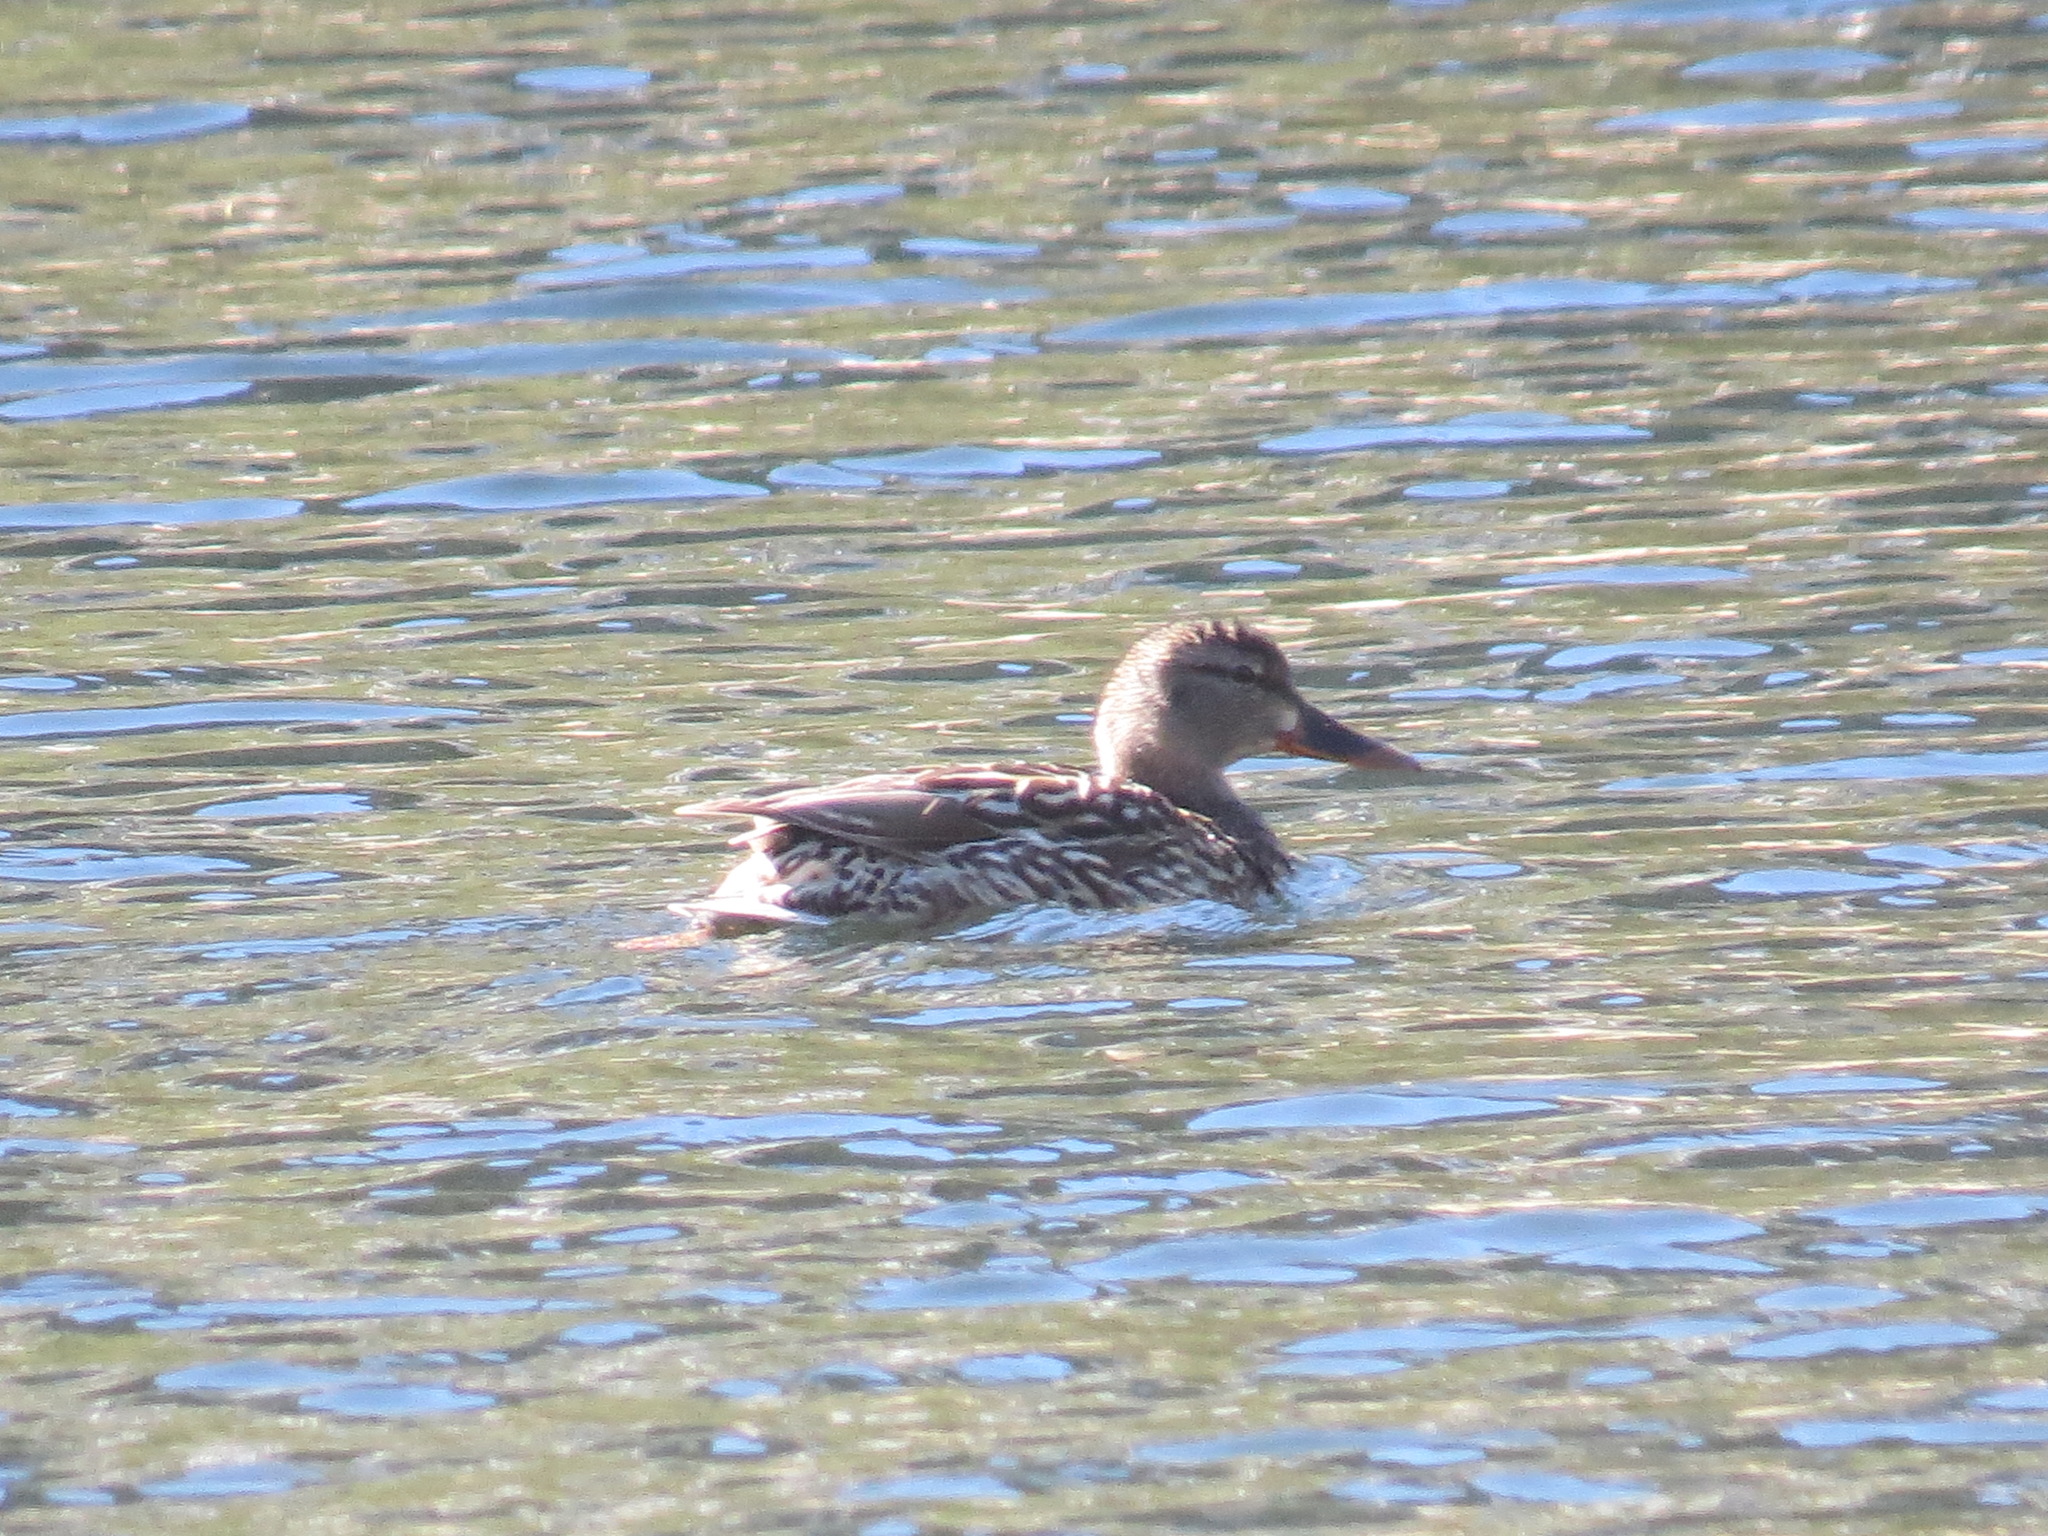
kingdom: Animalia
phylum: Chordata
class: Aves
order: Anseriformes
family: Anatidae
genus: Anas
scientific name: Anas platyrhynchos
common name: Mallard
